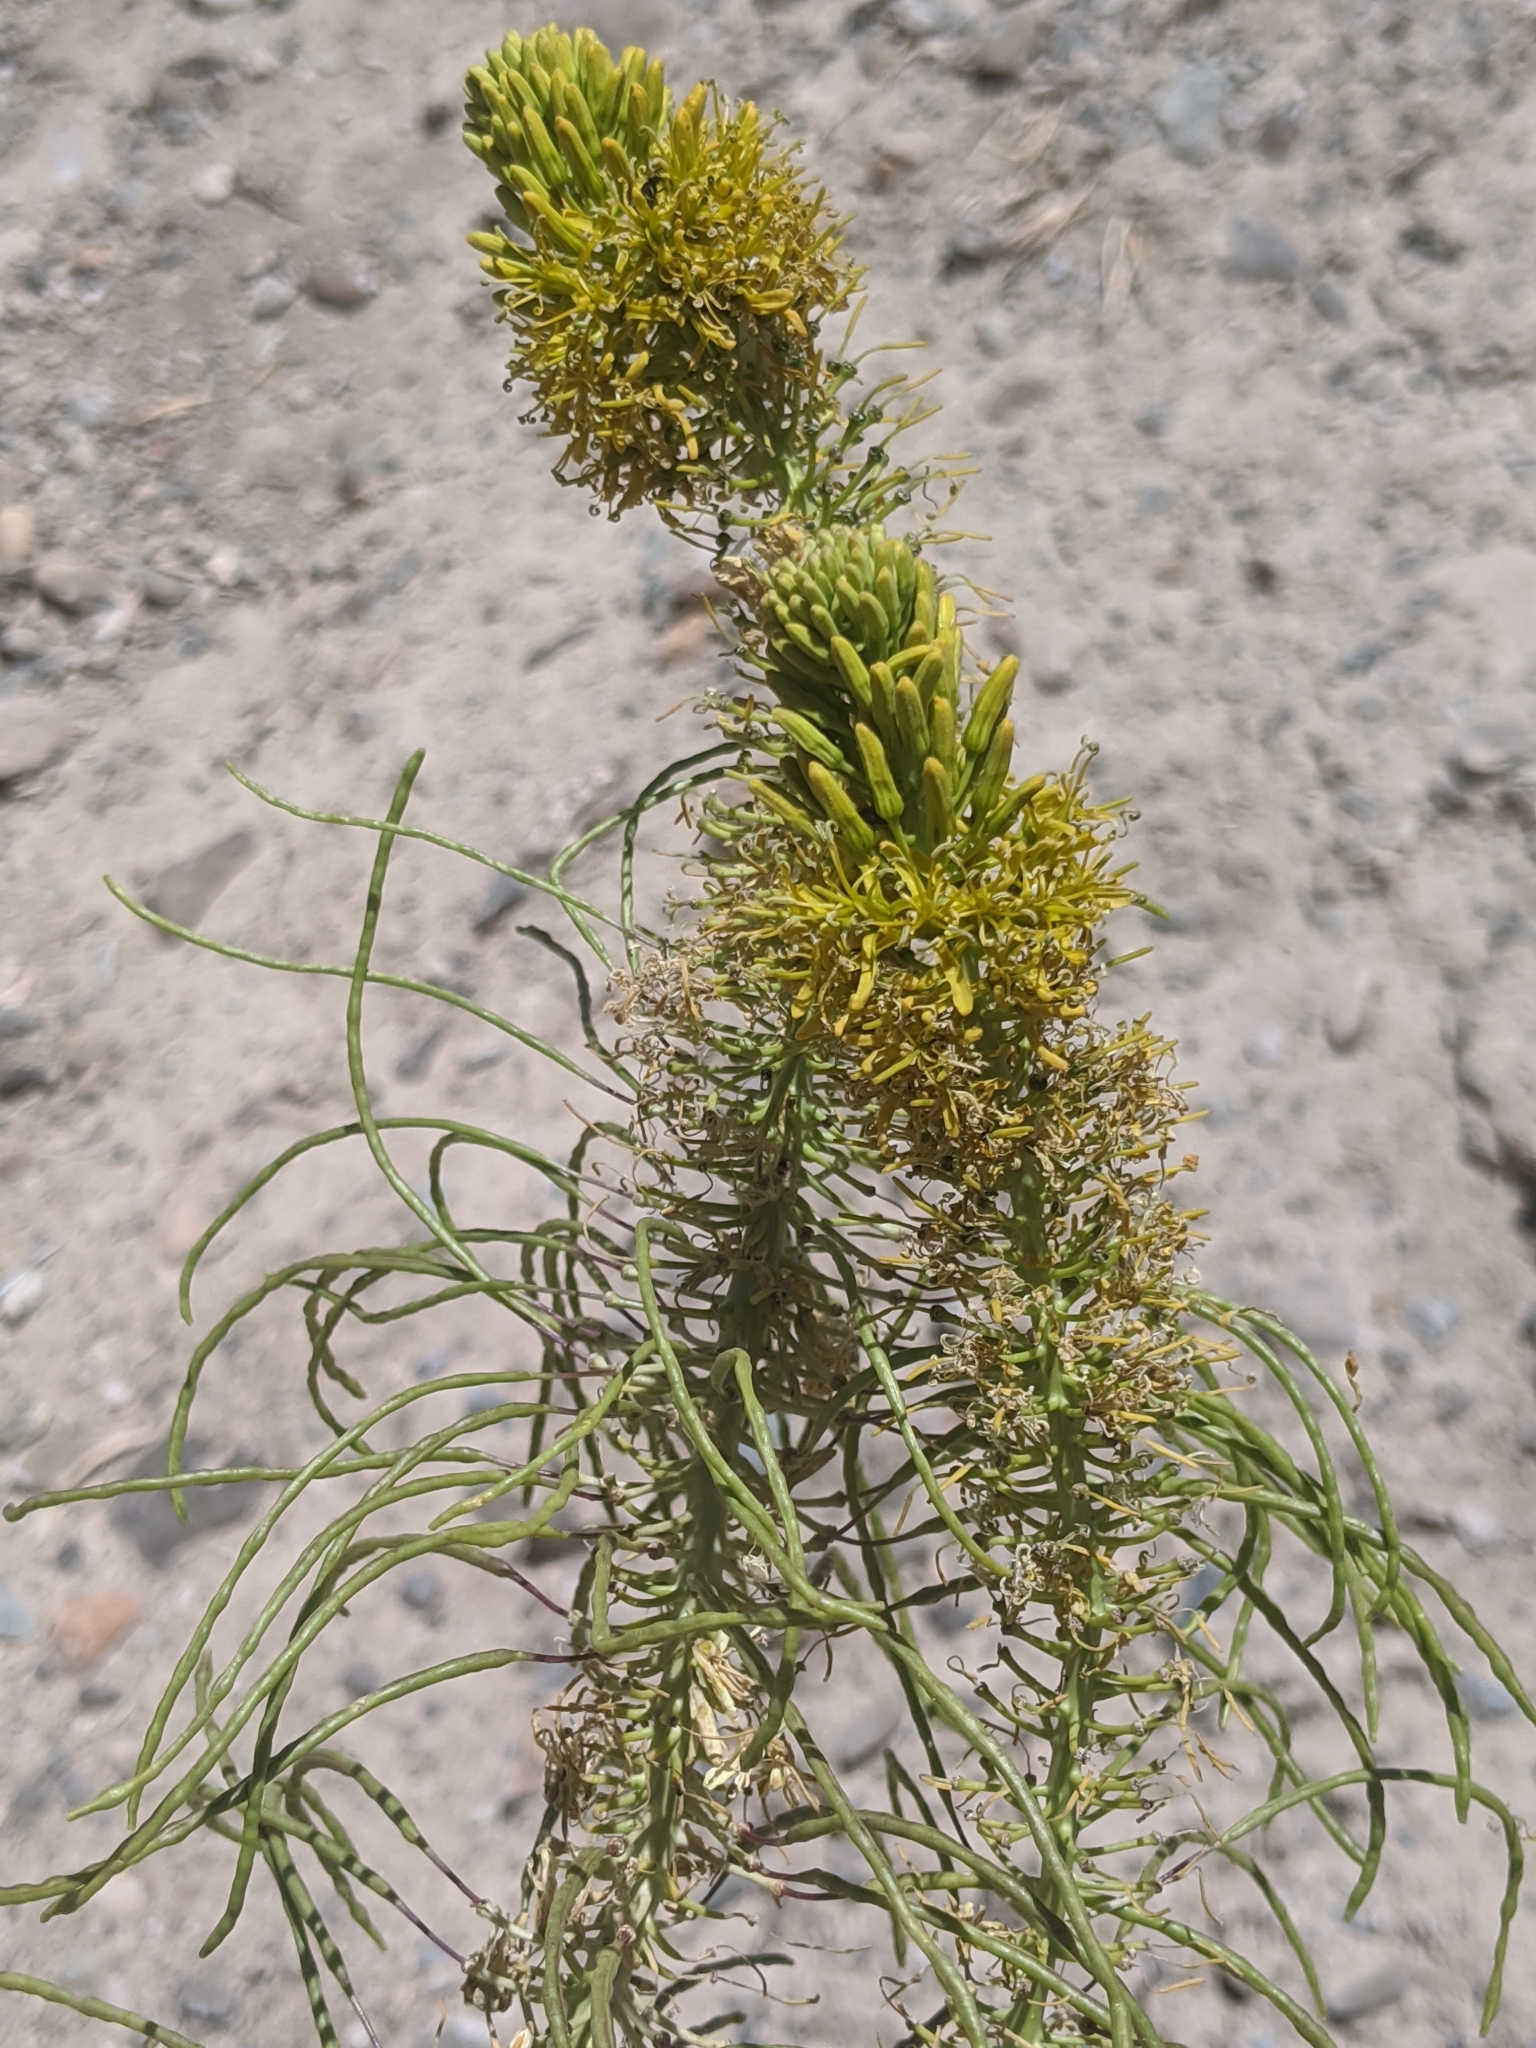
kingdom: Plantae
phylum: Tracheophyta
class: Magnoliopsida
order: Brassicales
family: Brassicaceae
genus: Stanleya
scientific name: Stanleya elata
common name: Panamint prince's plume
